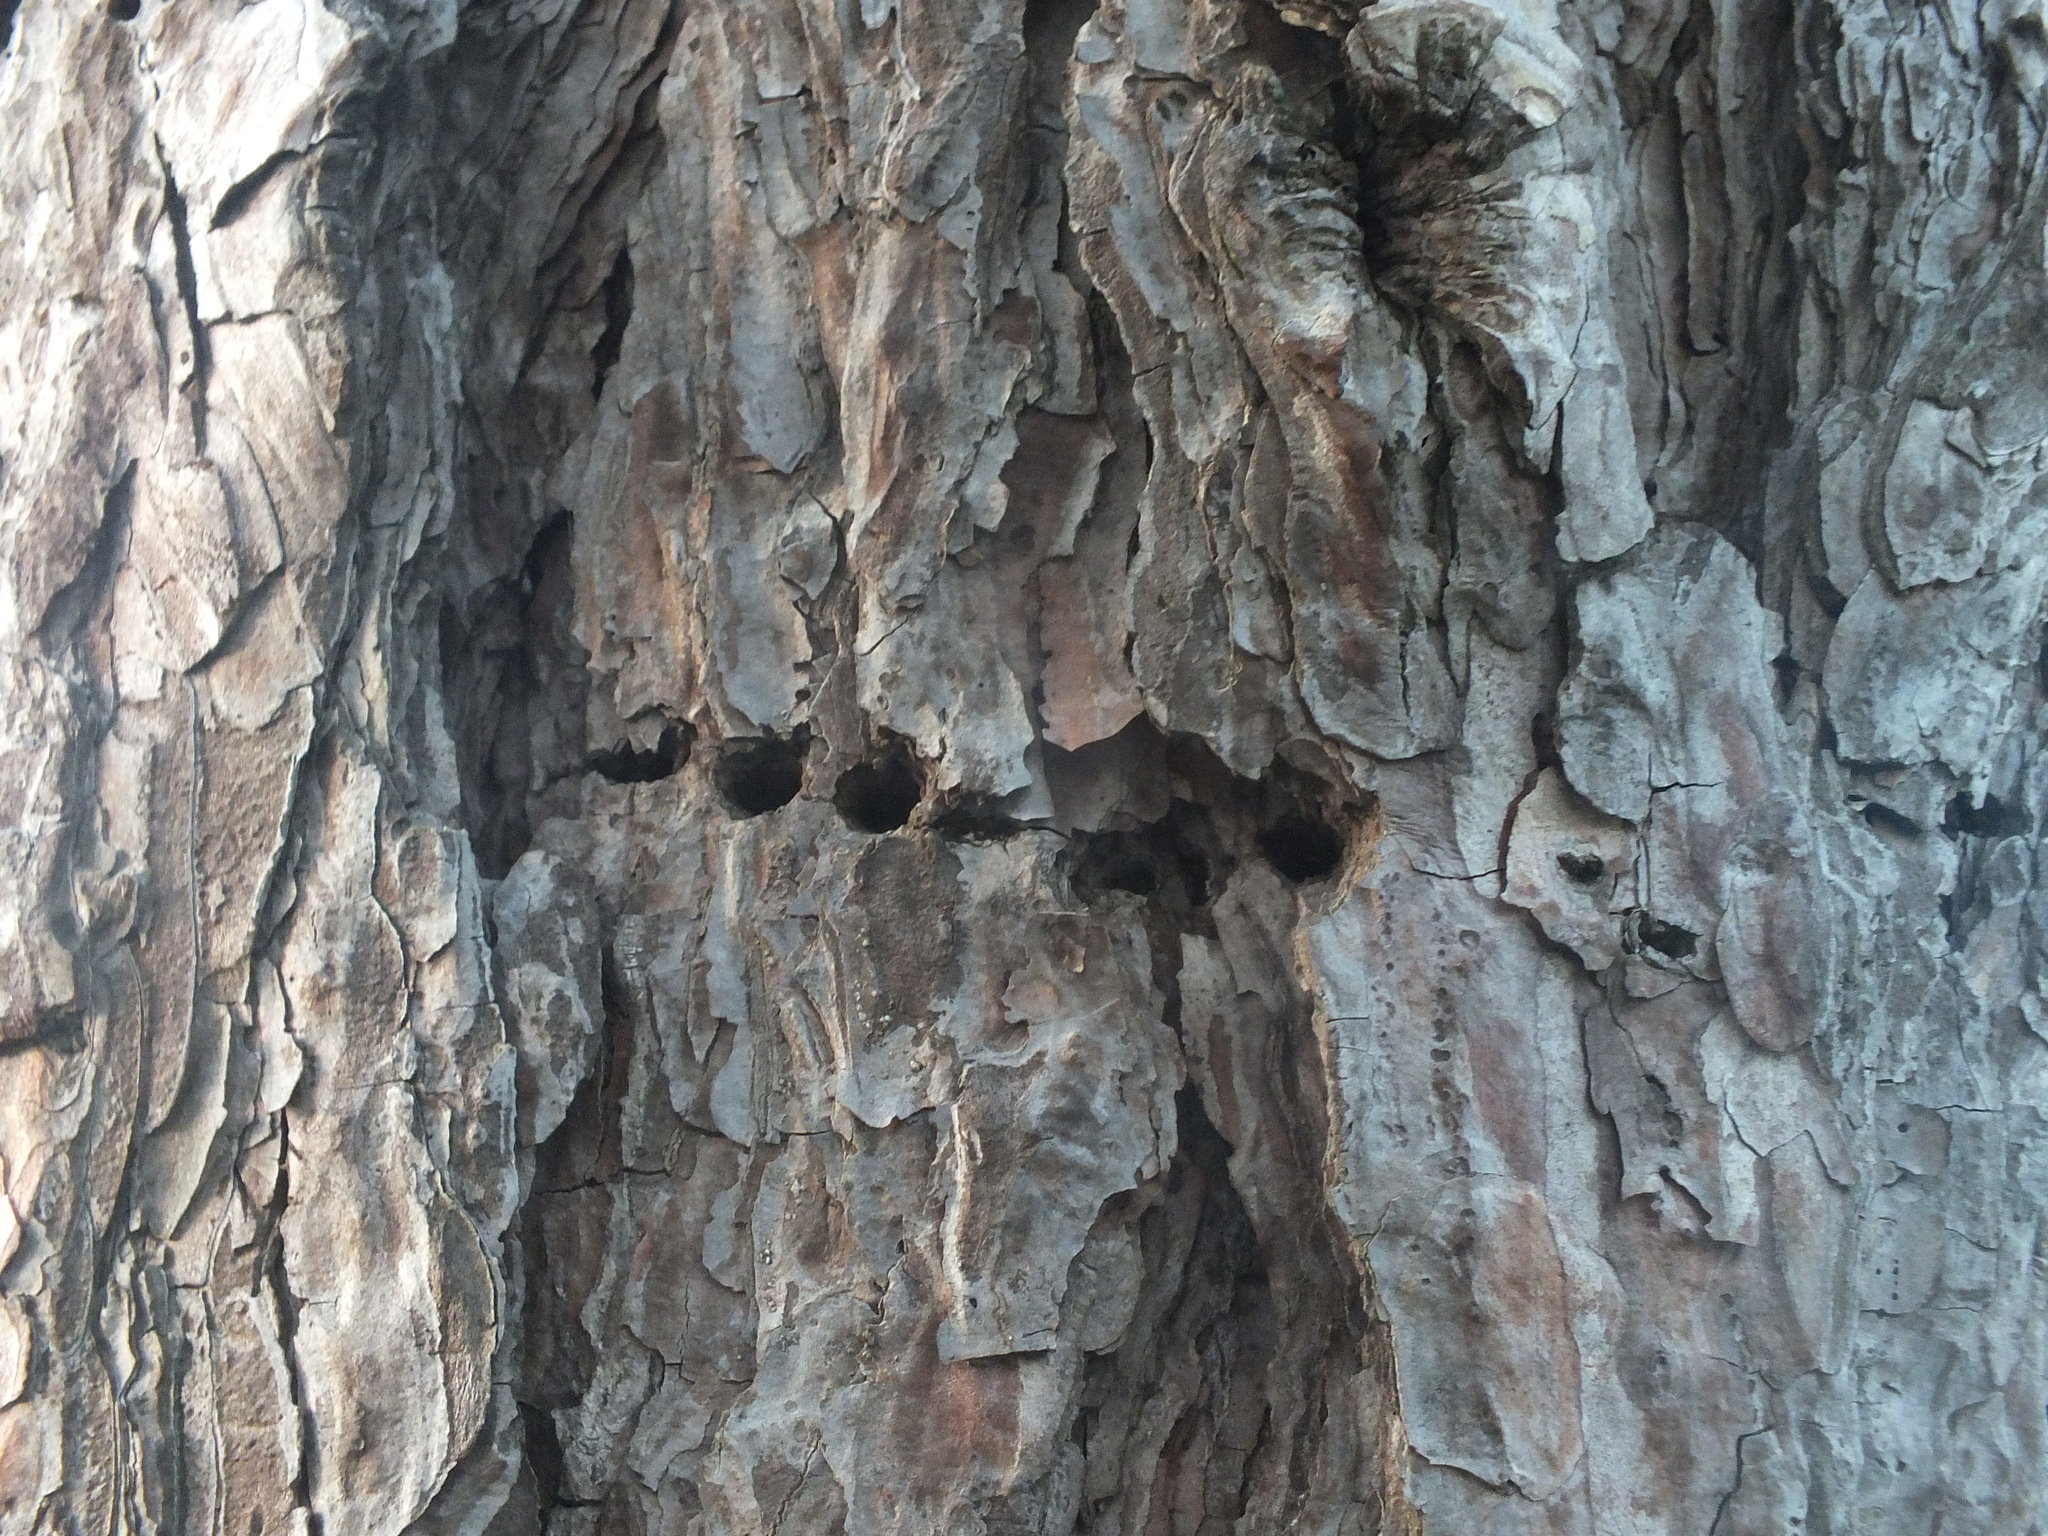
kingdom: Animalia
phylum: Chordata
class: Aves
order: Piciformes
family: Picidae
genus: Sphyrapicus
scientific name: Sphyrapicus varius
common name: Yellow-bellied sapsucker
